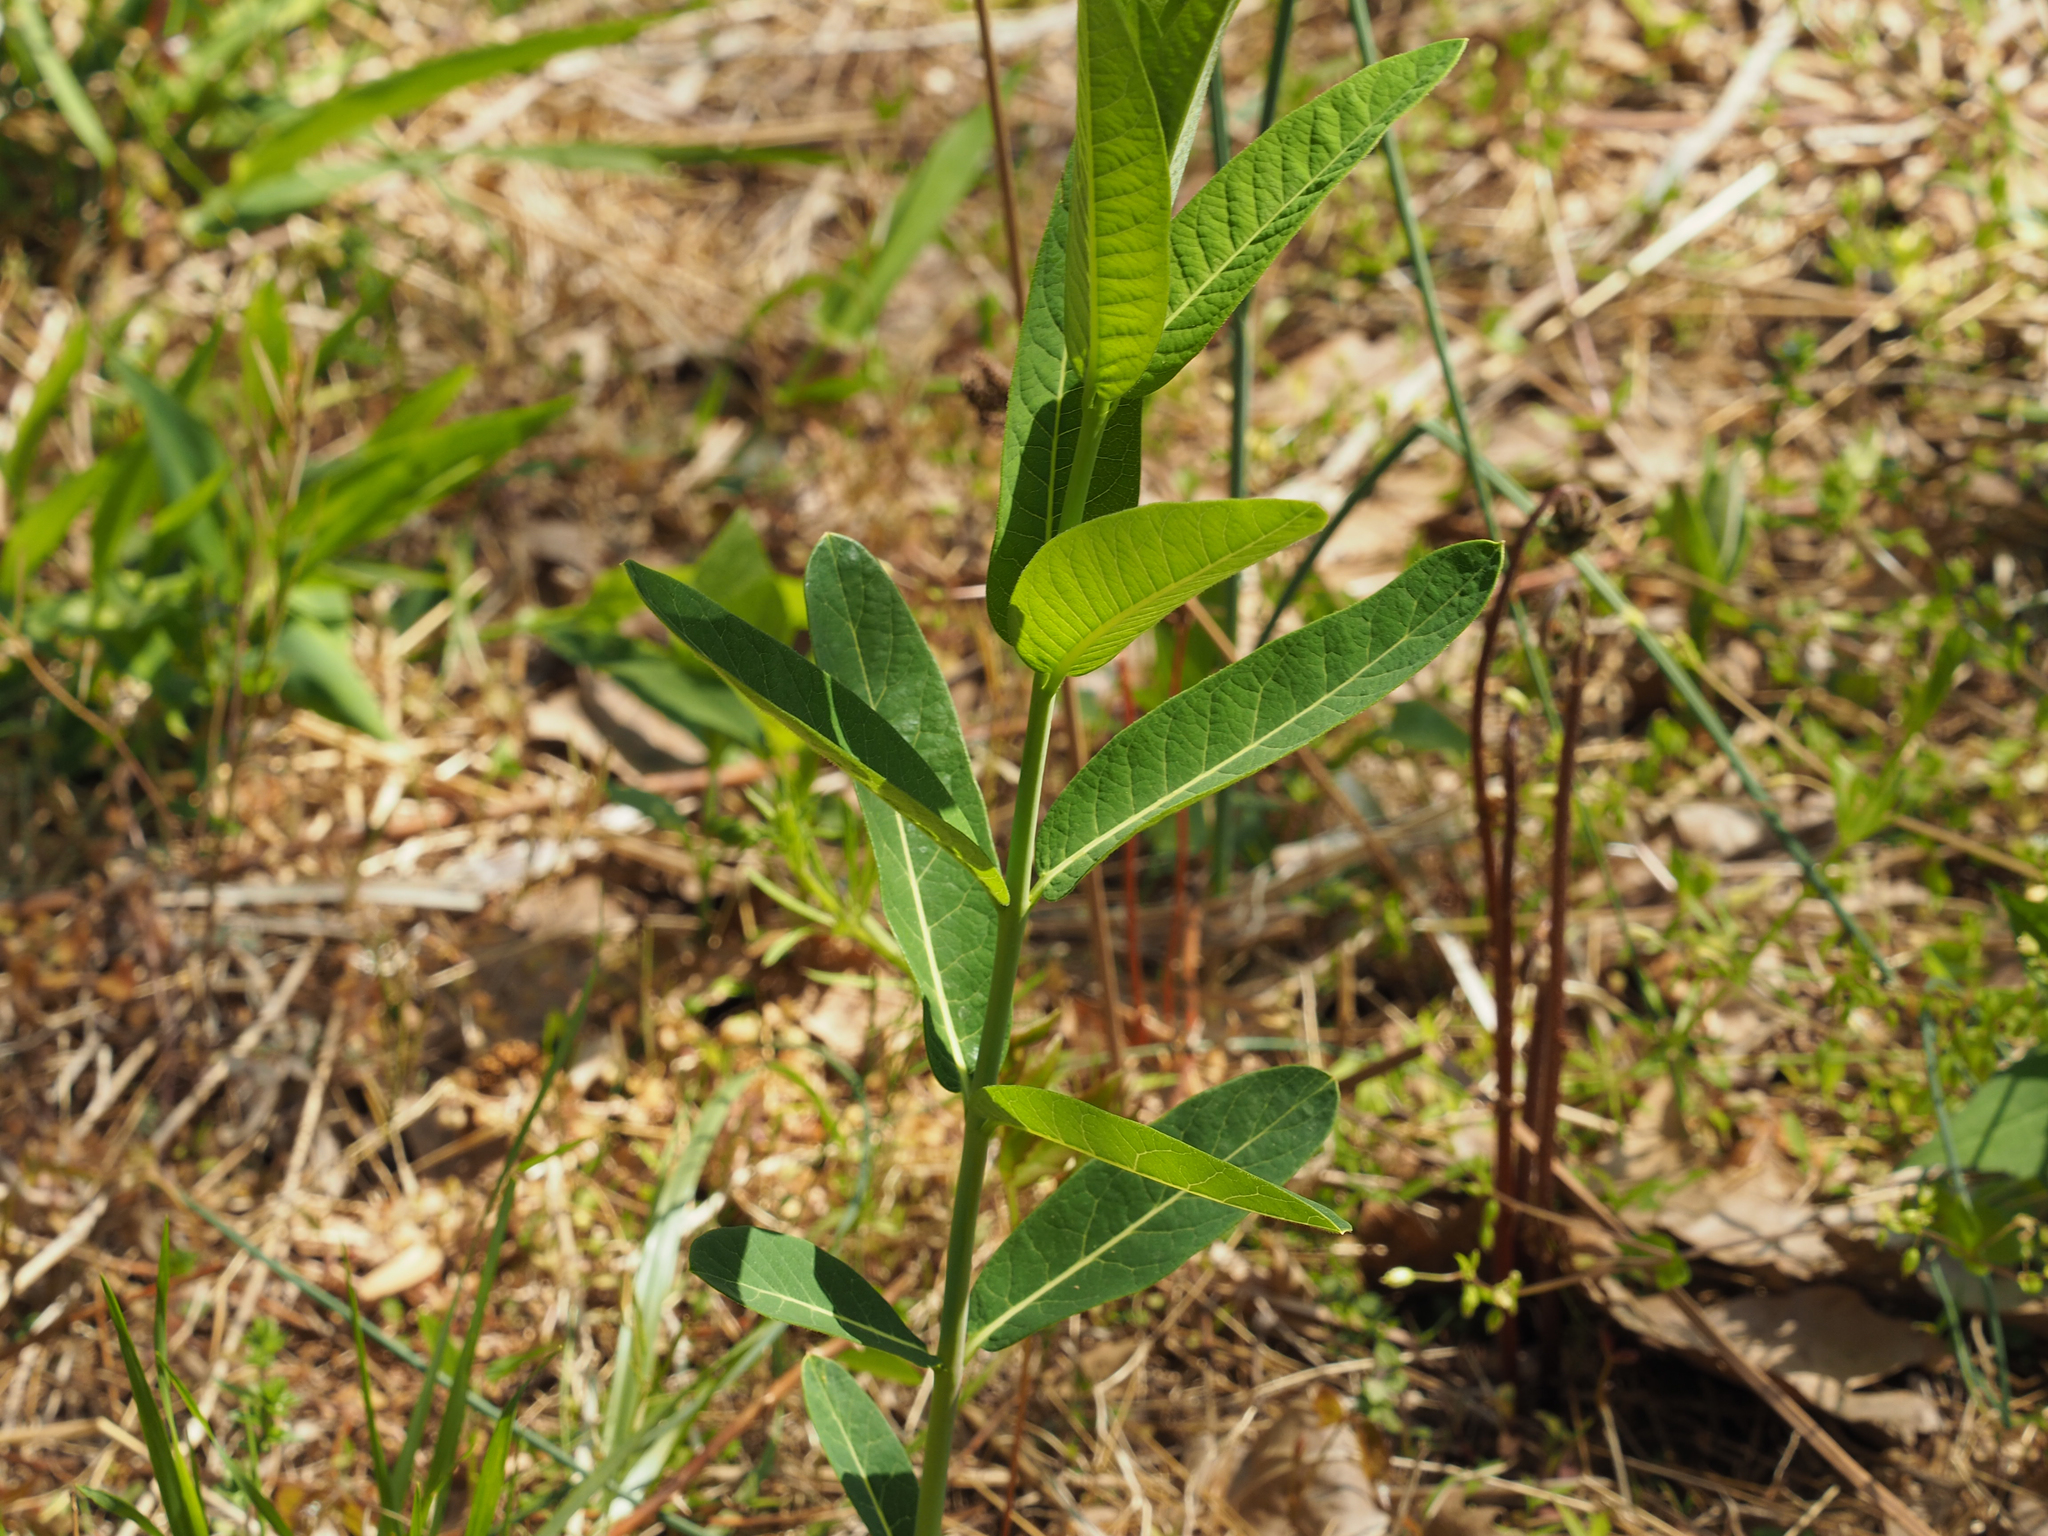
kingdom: Plantae
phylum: Tracheophyta
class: Magnoliopsida
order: Gentianales
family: Apocynaceae
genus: Apocynum
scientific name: Apocynum cannabinum
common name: Hemp dogbane
